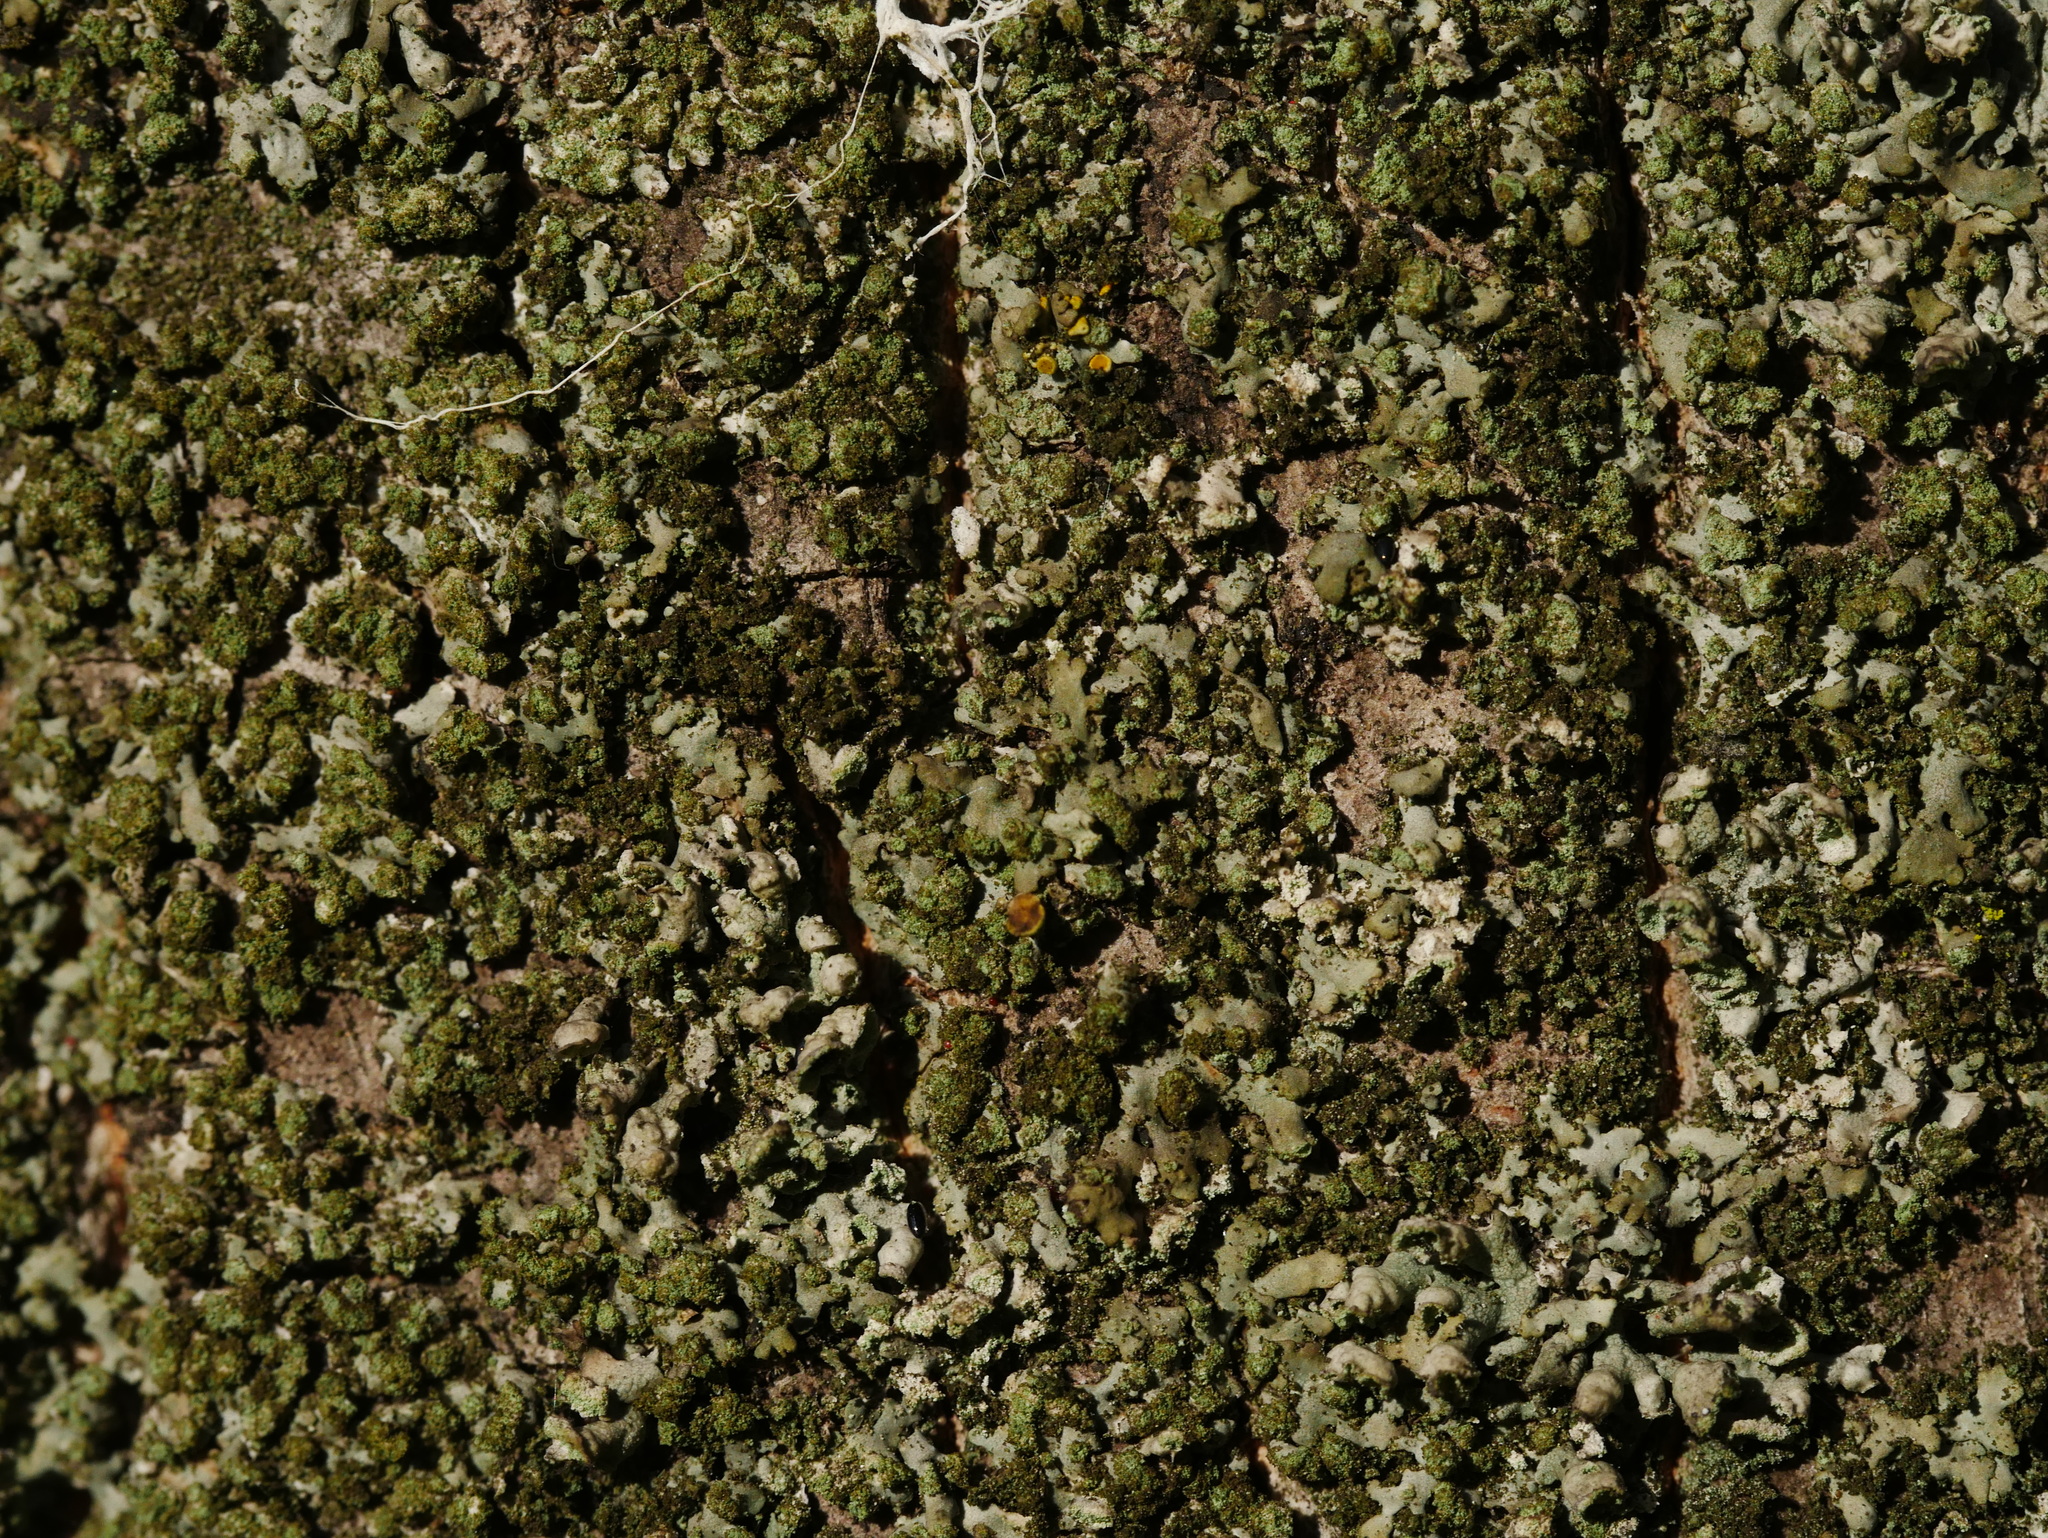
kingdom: Fungi
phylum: Ascomycota
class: Lecanoromycetes
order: Caliciales
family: Physciaceae
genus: Phaeophyscia
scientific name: Phaeophyscia orbicularis
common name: Mealy shadow lichen
